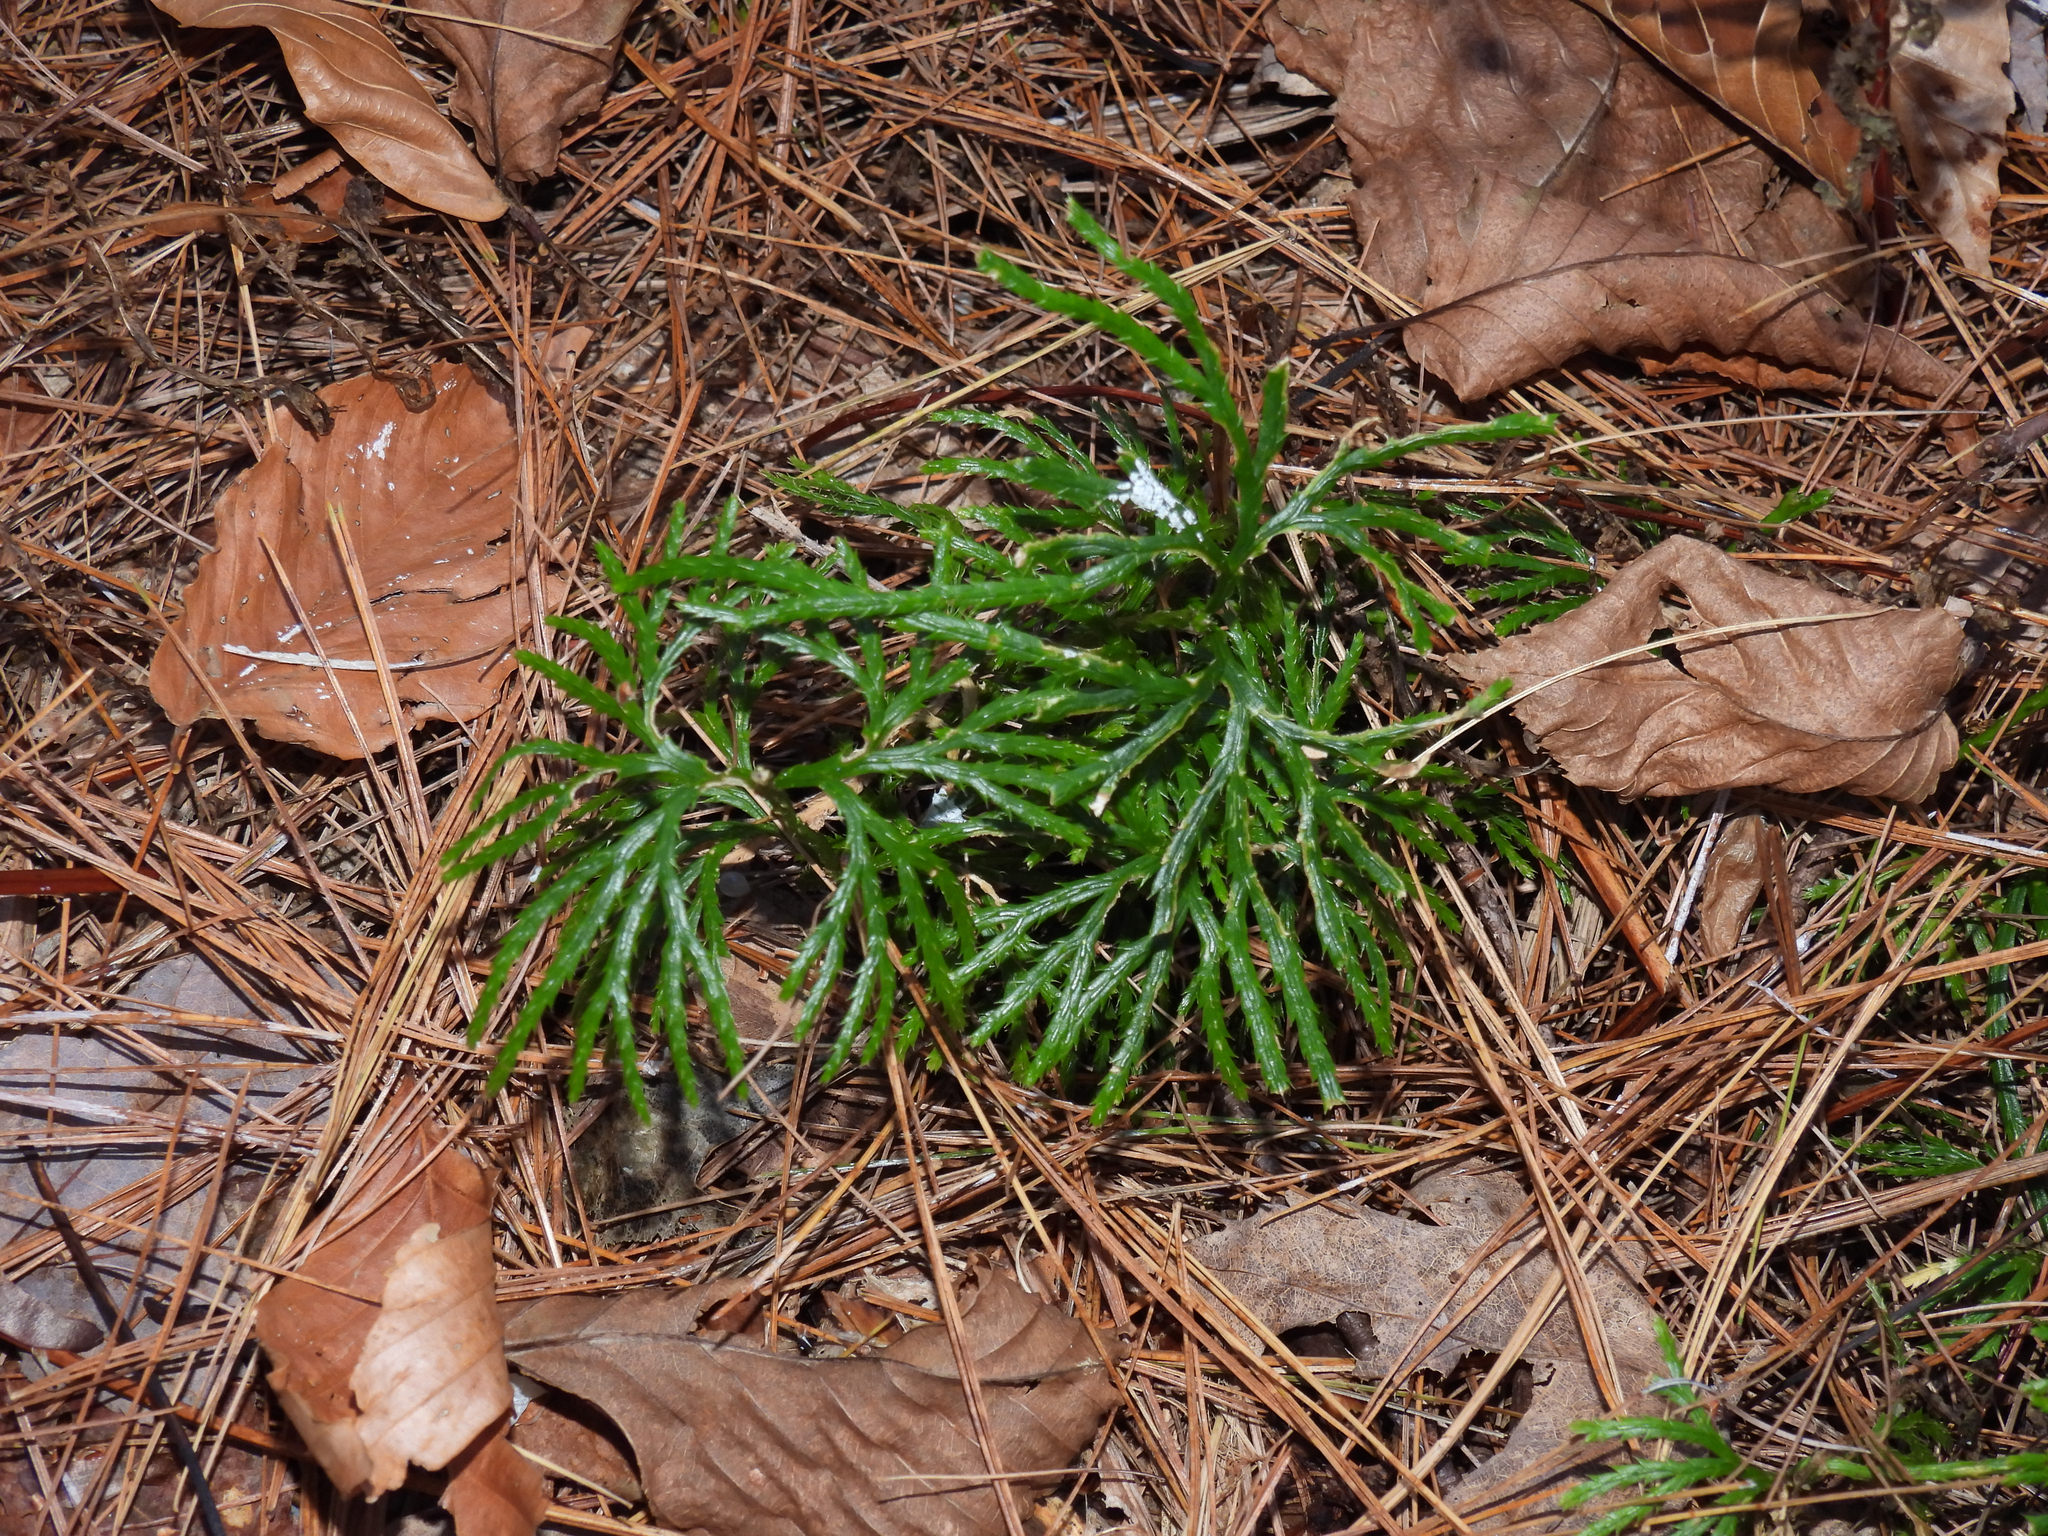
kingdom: Plantae
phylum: Tracheophyta
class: Lycopodiopsida
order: Lycopodiales
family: Lycopodiaceae
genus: Diphasiastrum
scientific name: Diphasiastrum digitatum
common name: Southern running-pine
